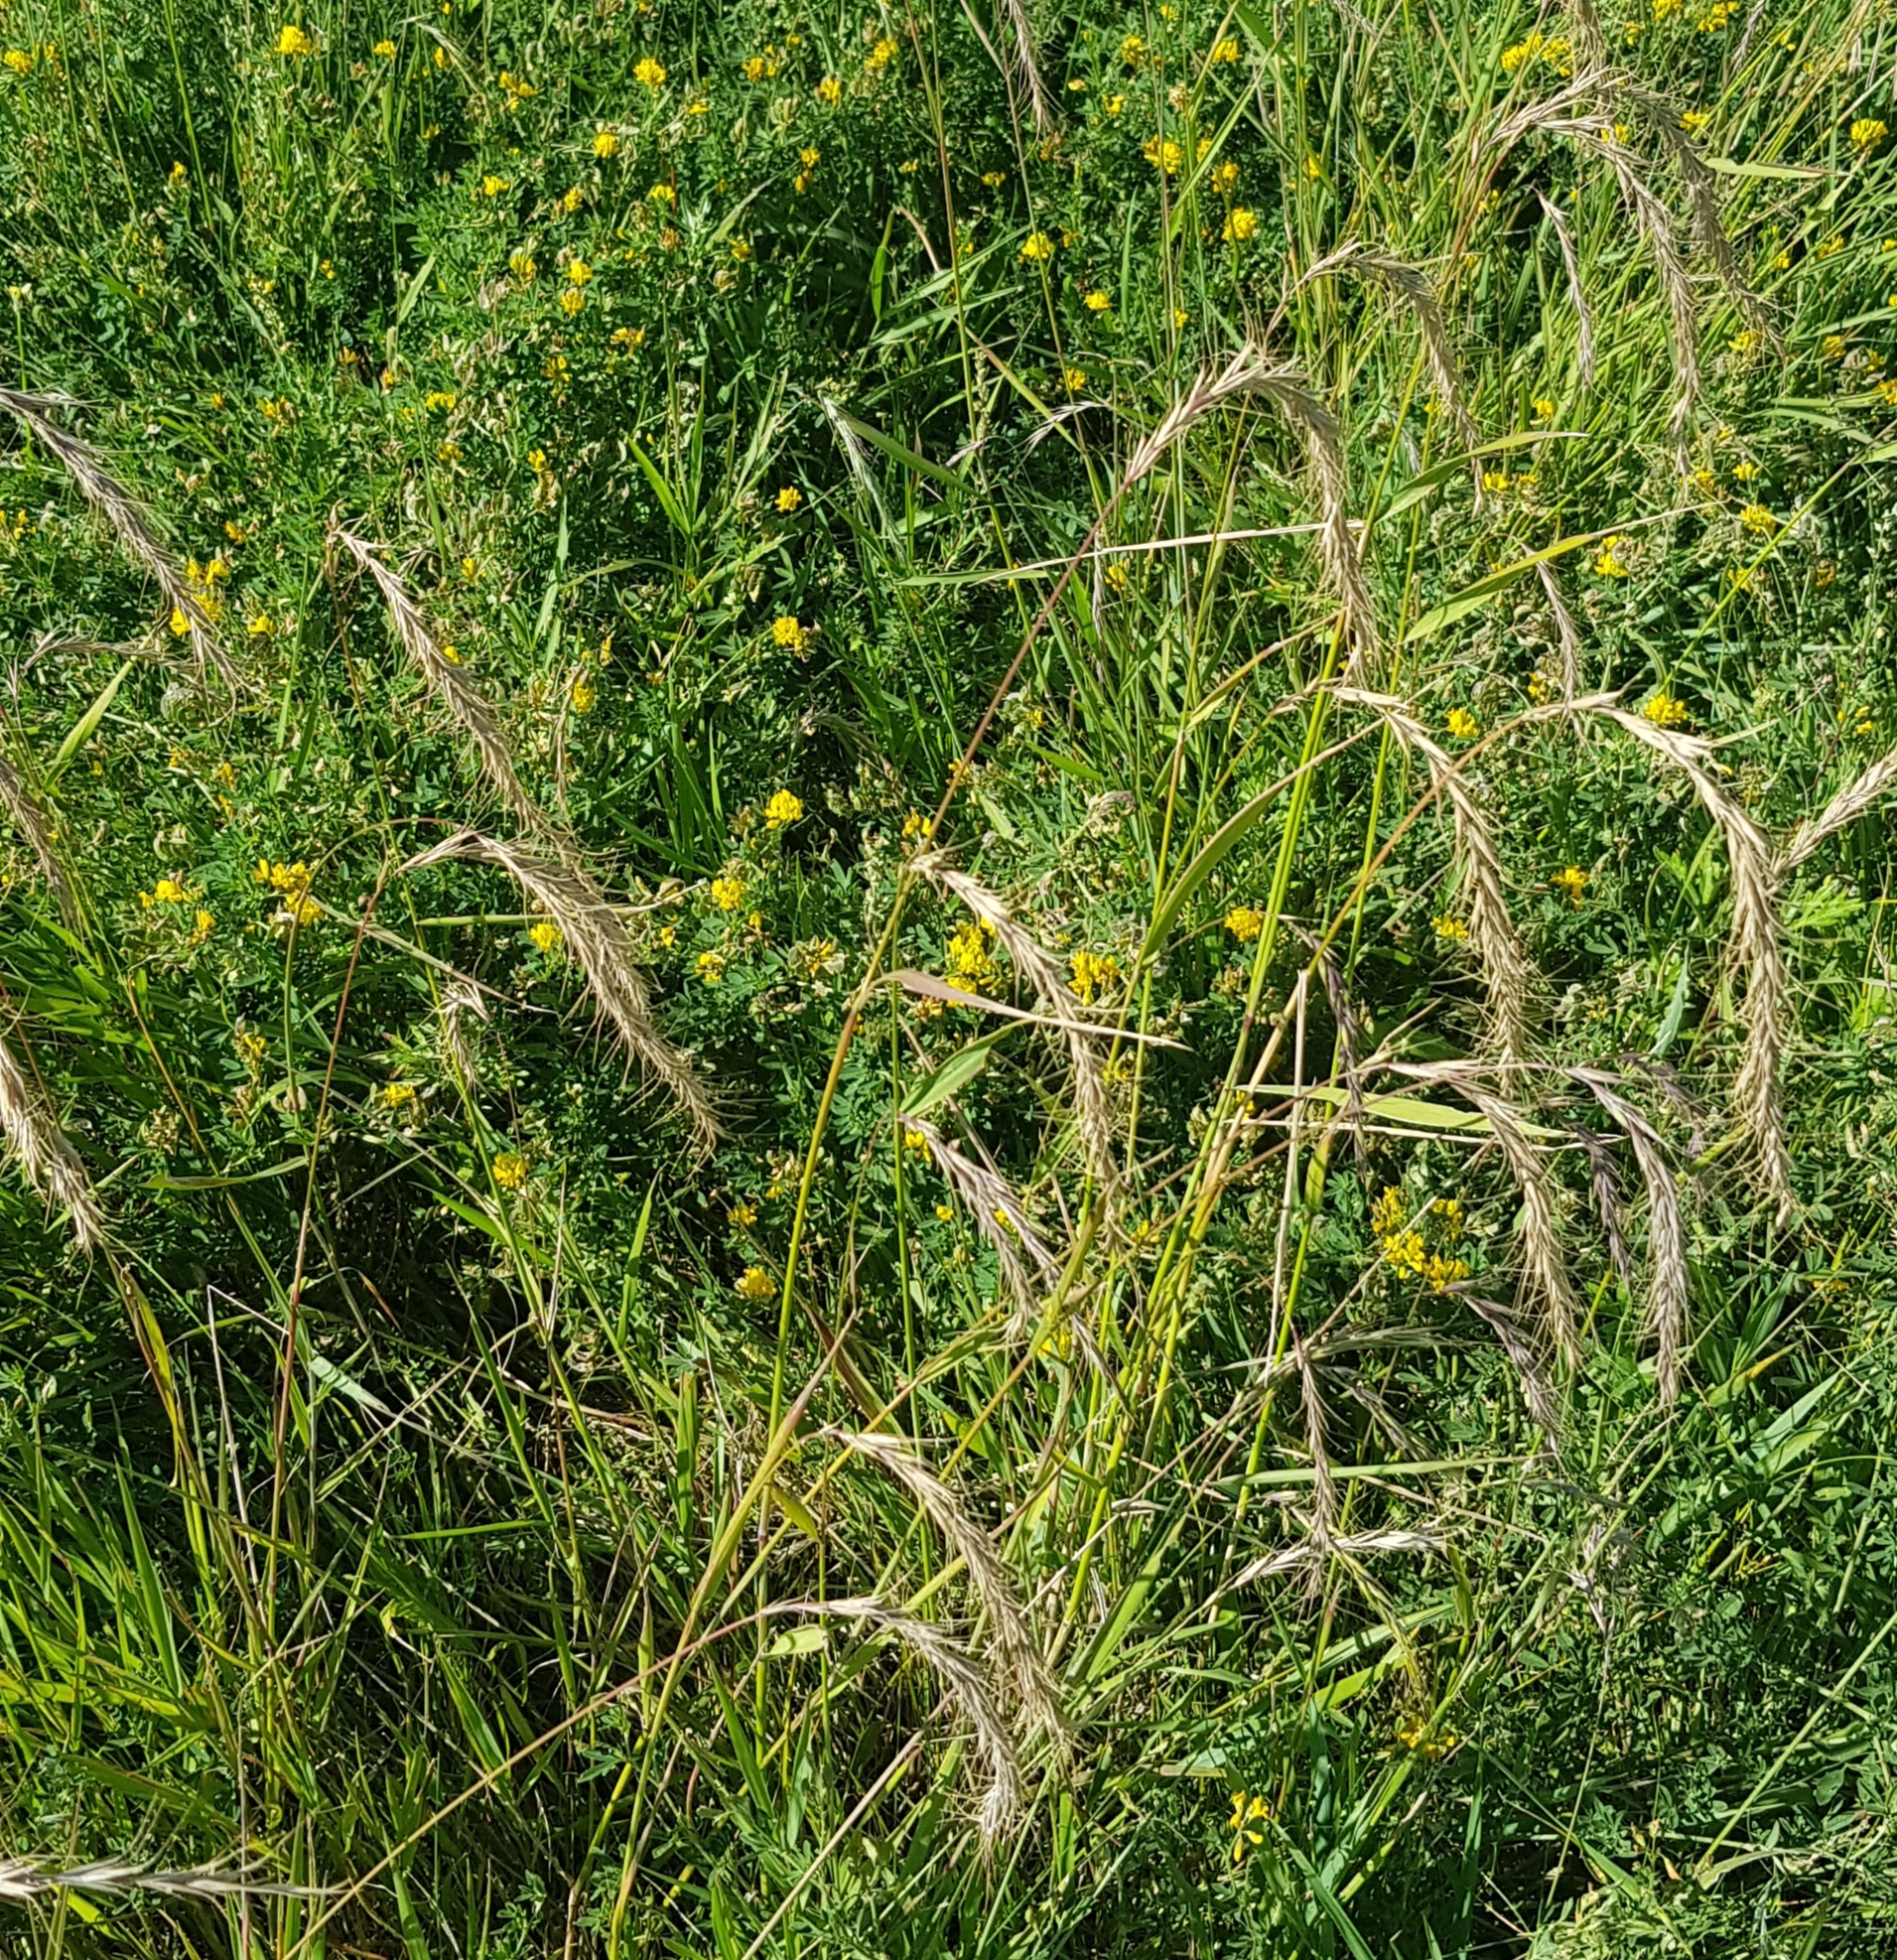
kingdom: Plantae
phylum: Tracheophyta
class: Liliopsida
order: Poales
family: Poaceae
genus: Elymus
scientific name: Elymus sibiricus
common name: Siberian wildrye
